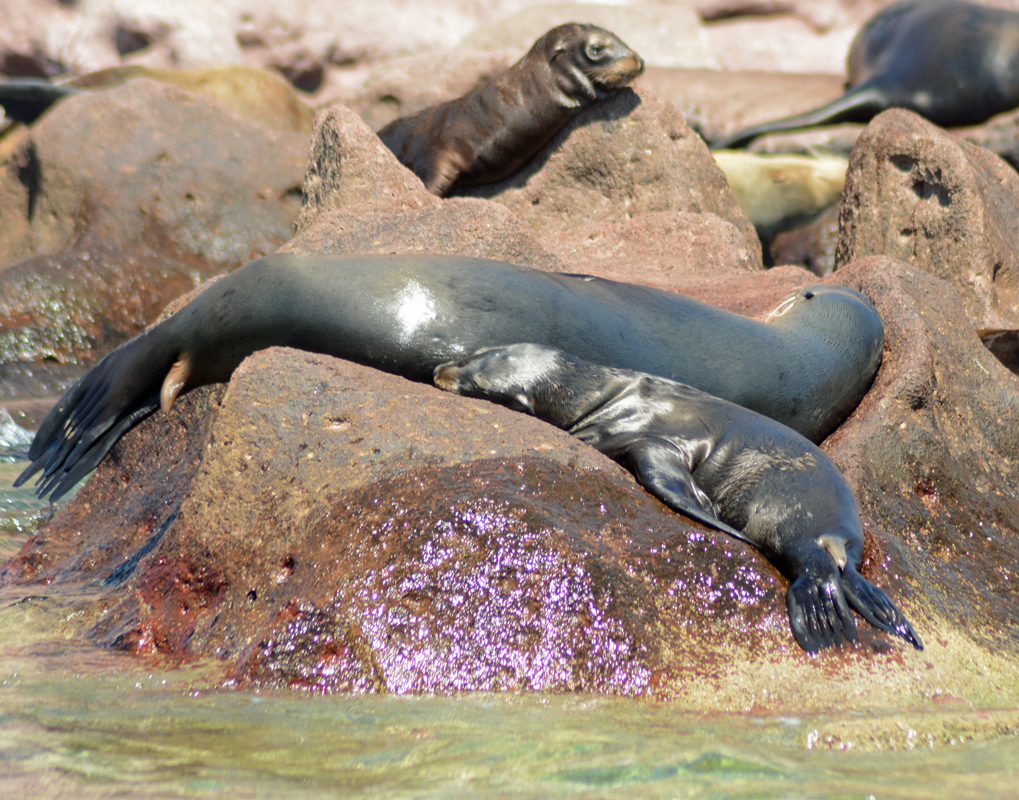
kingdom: Animalia
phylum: Chordata
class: Mammalia
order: Carnivora
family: Otariidae
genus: Zalophus
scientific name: Zalophus californianus
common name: California sea lion
